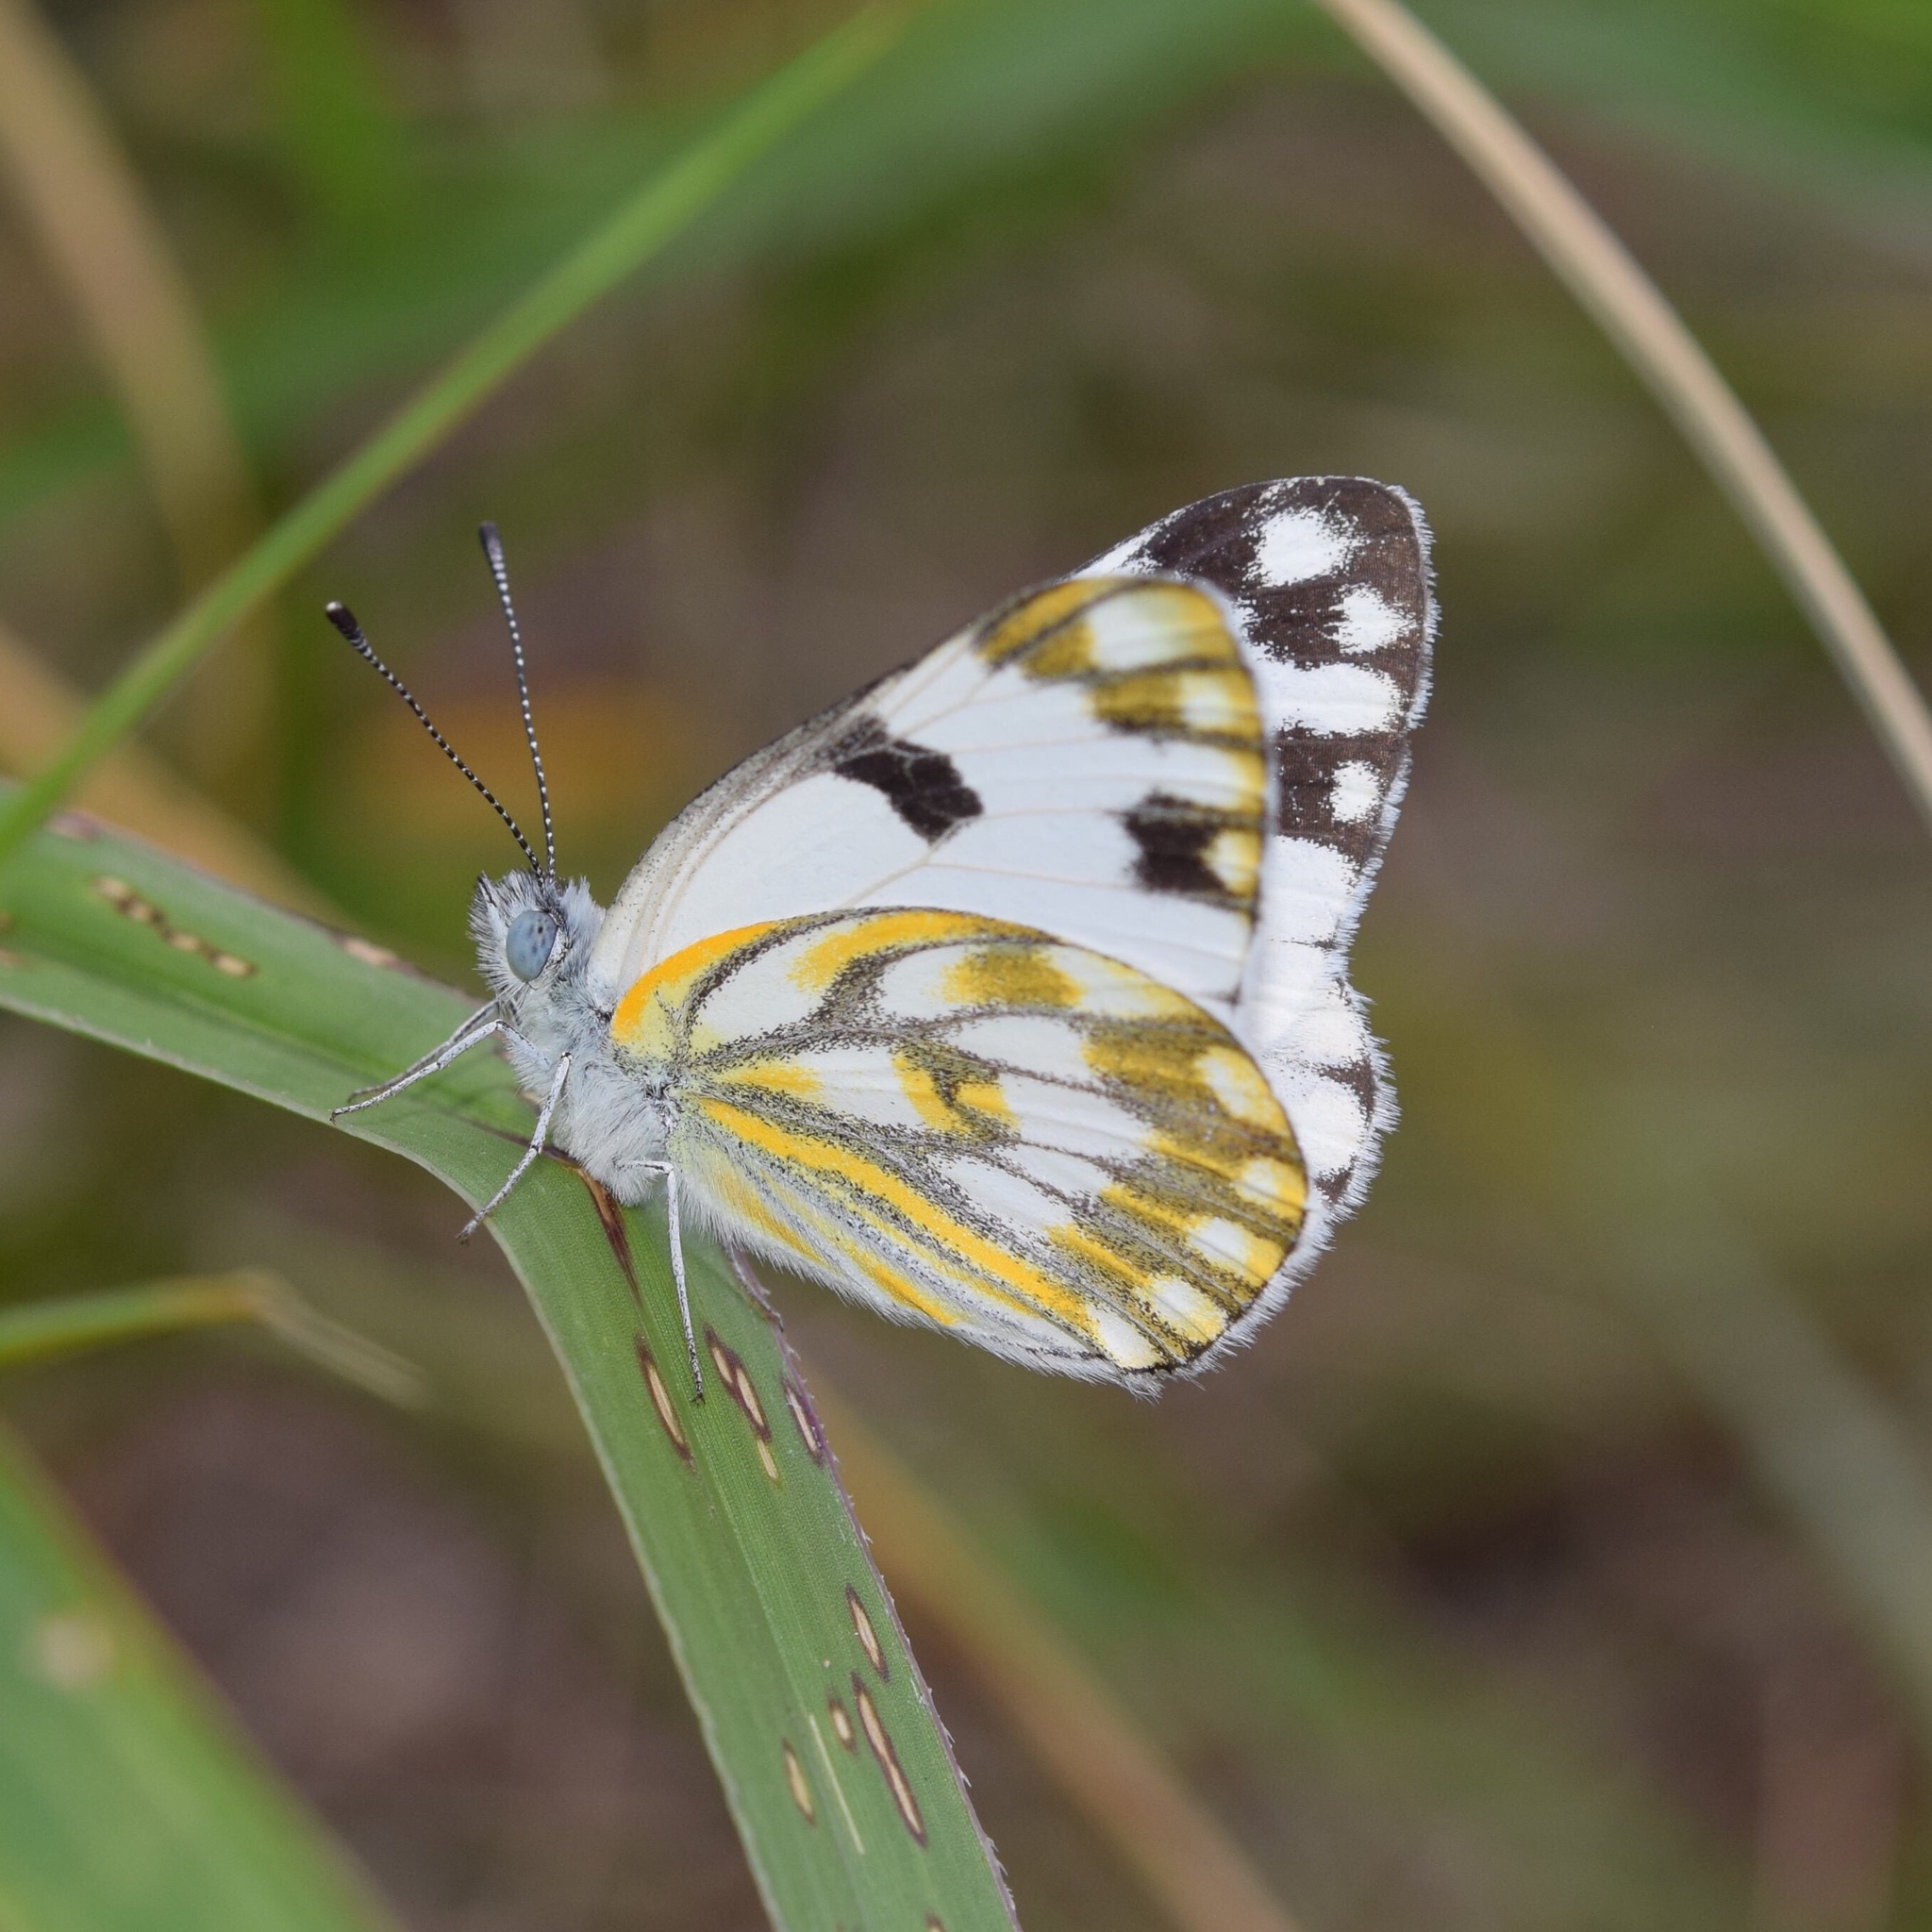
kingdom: Animalia
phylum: Arthropoda
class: Insecta
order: Lepidoptera
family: Pieridae
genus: Pontia
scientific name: Pontia helice
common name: Meadow white
